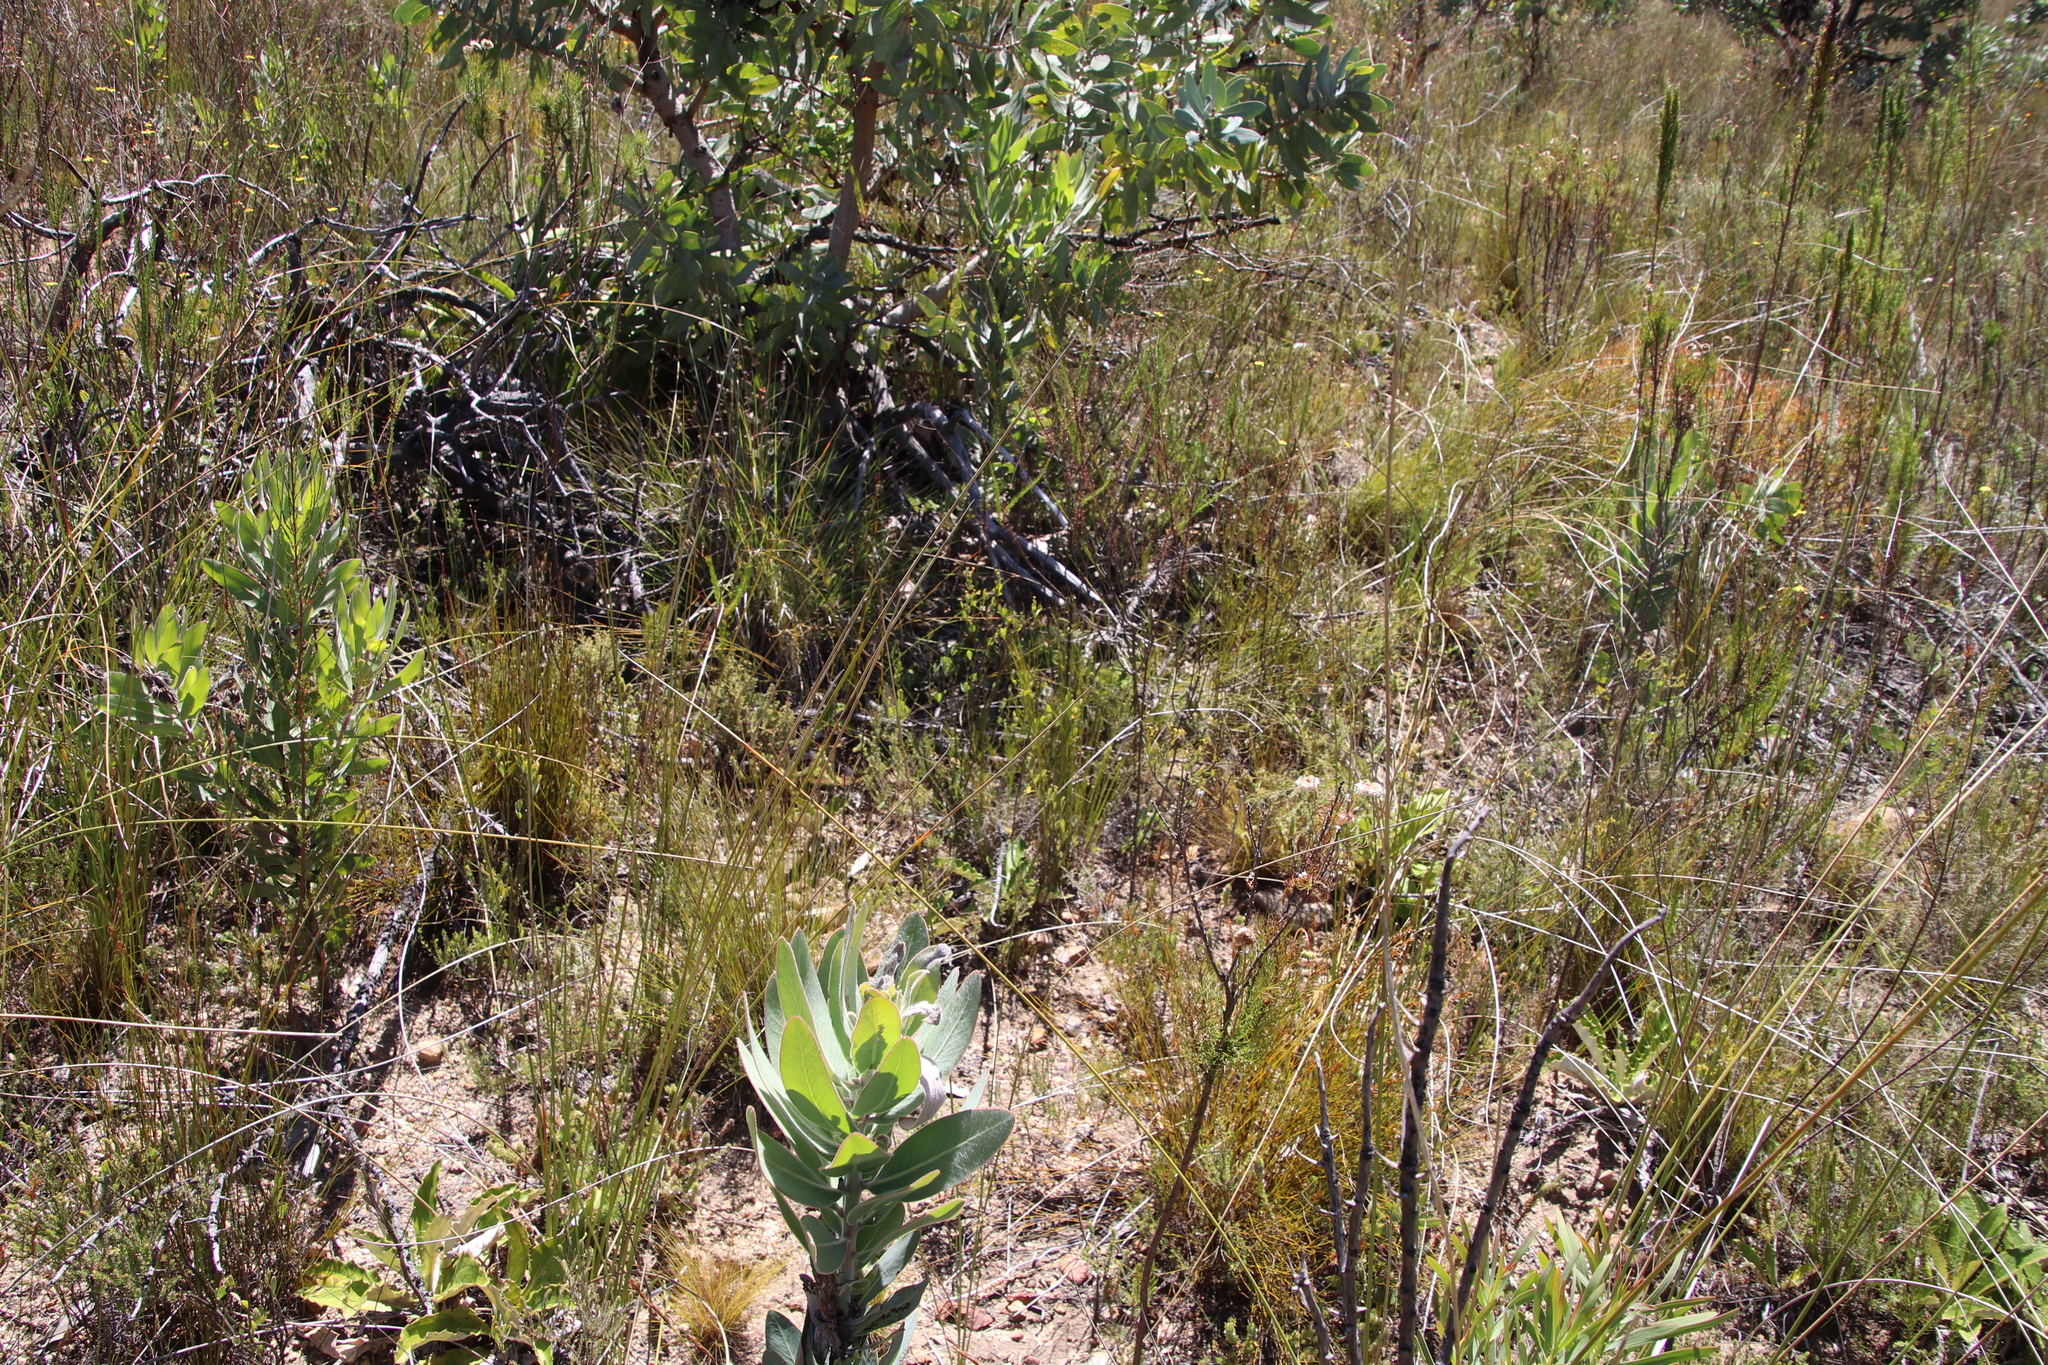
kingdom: Plantae
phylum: Tracheophyta
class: Magnoliopsida
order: Solanales
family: Montiniaceae
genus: Montinia
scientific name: Montinia caryophyllacea
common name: Wild clove-bush
